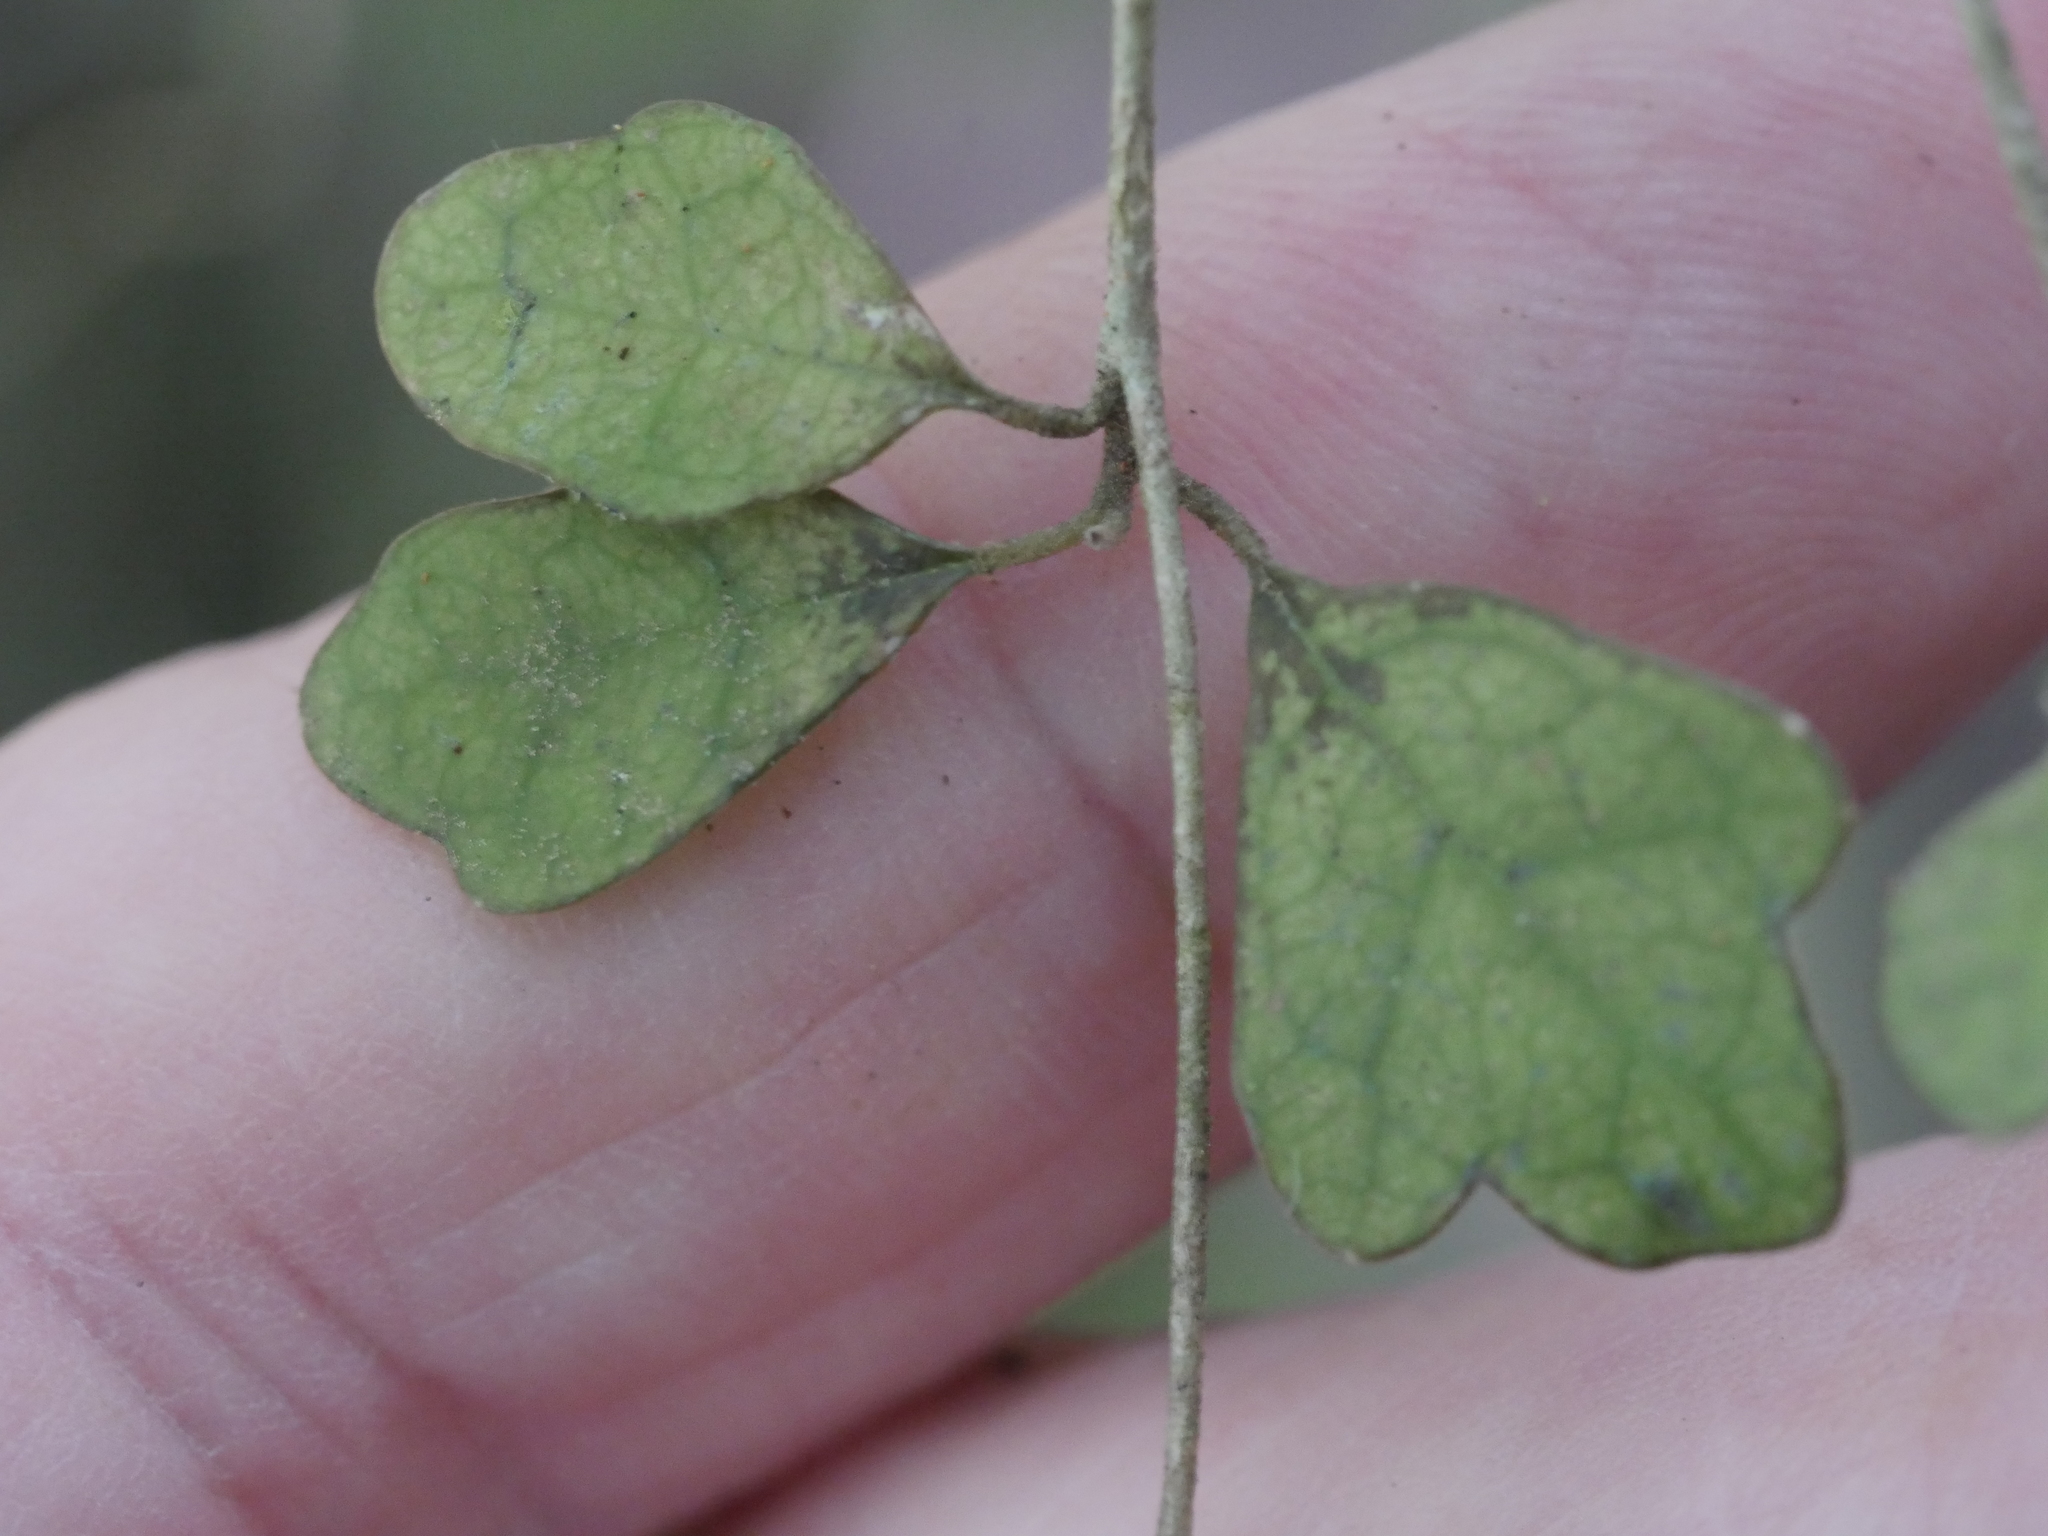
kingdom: Plantae
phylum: Tracheophyta
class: Magnoliopsida
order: Apiales
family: Pennantiaceae
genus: Pennantia
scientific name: Pennantia corymbosa
